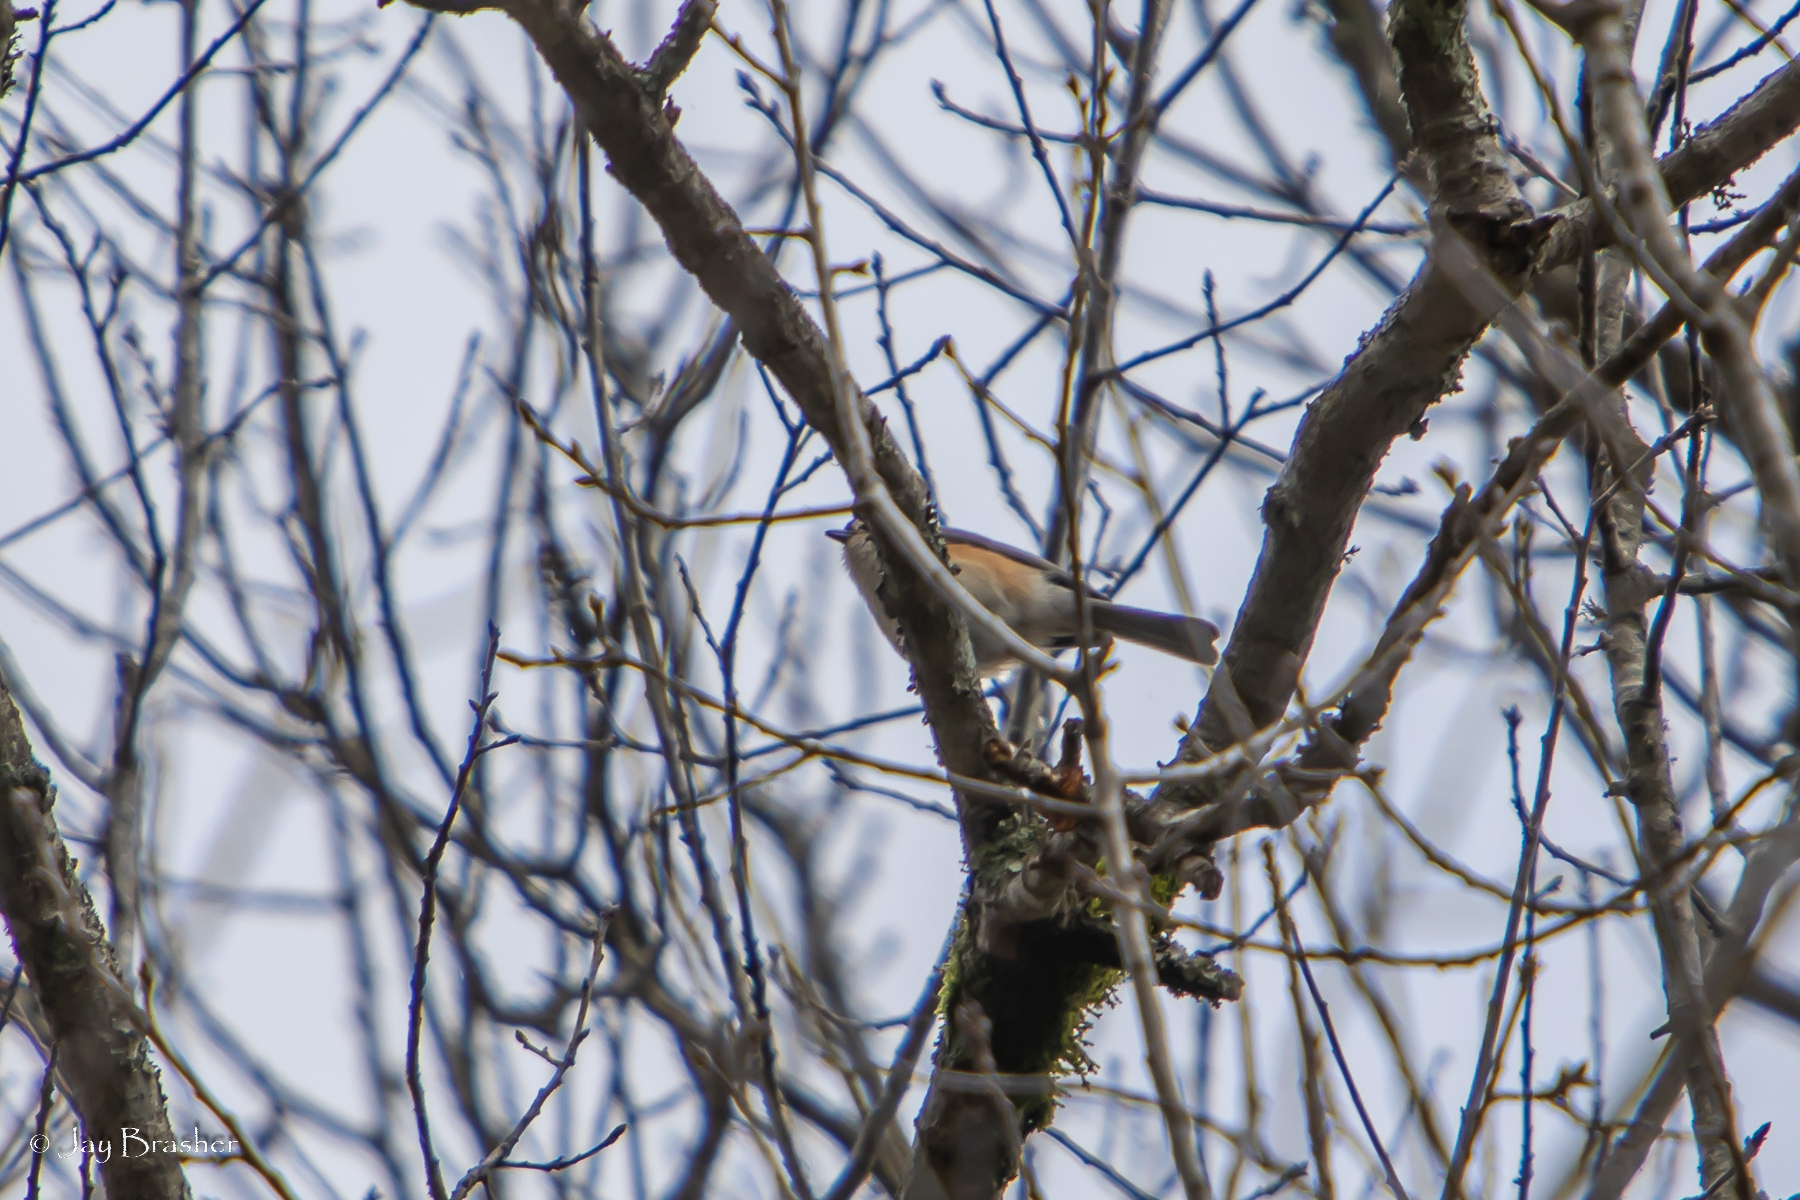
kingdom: Animalia
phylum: Chordata
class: Aves
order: Passeriformes
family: Paridae
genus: Baeolophus
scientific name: Baeolophus bicolor
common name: Tufted titmouse
